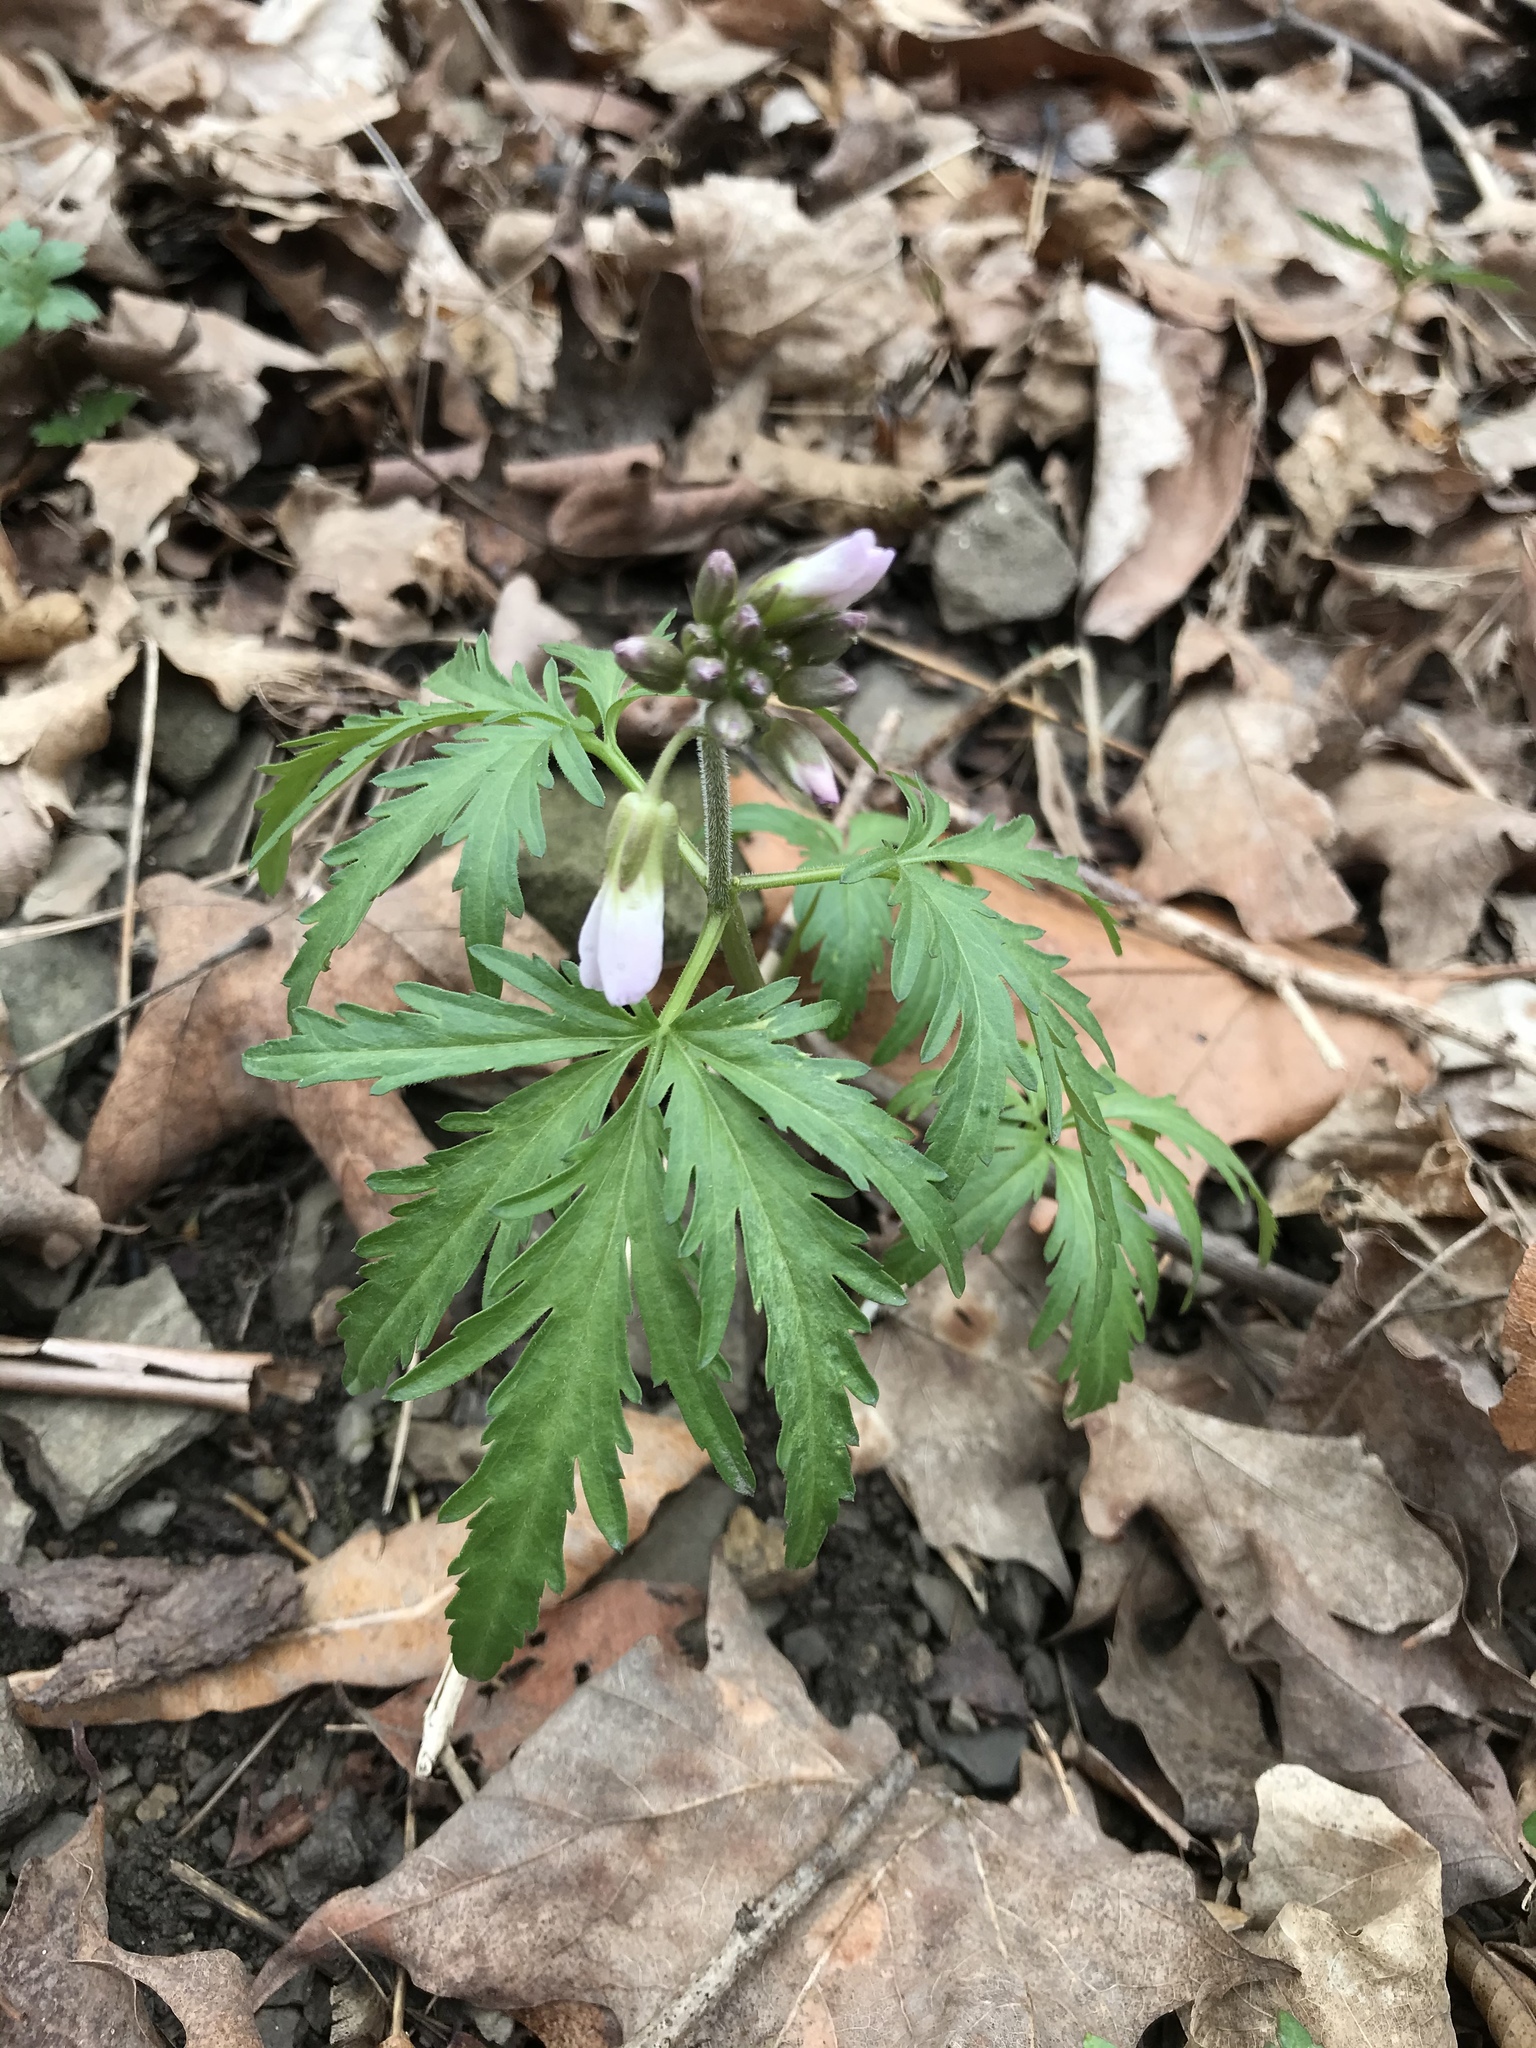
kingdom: Plantae
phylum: Tracheophyta
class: Magnoliopsida
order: Brassicales
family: Brassicaceae
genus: Cardamine
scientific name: Cardamine concatenata
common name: Cut-leaf toothcup
